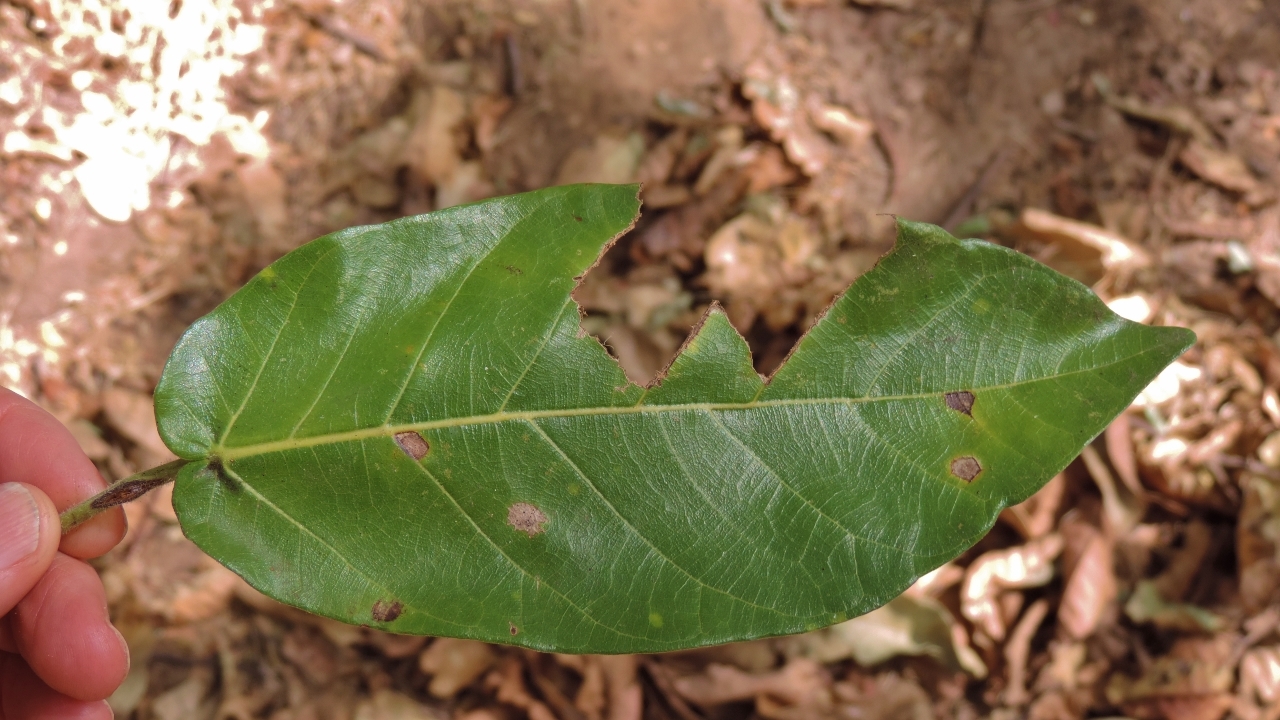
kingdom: Plantae
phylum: Tracheophyta
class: Magnoliopsida
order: Rosales
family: Moraceae
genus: Ficus
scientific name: Ficus bussei
